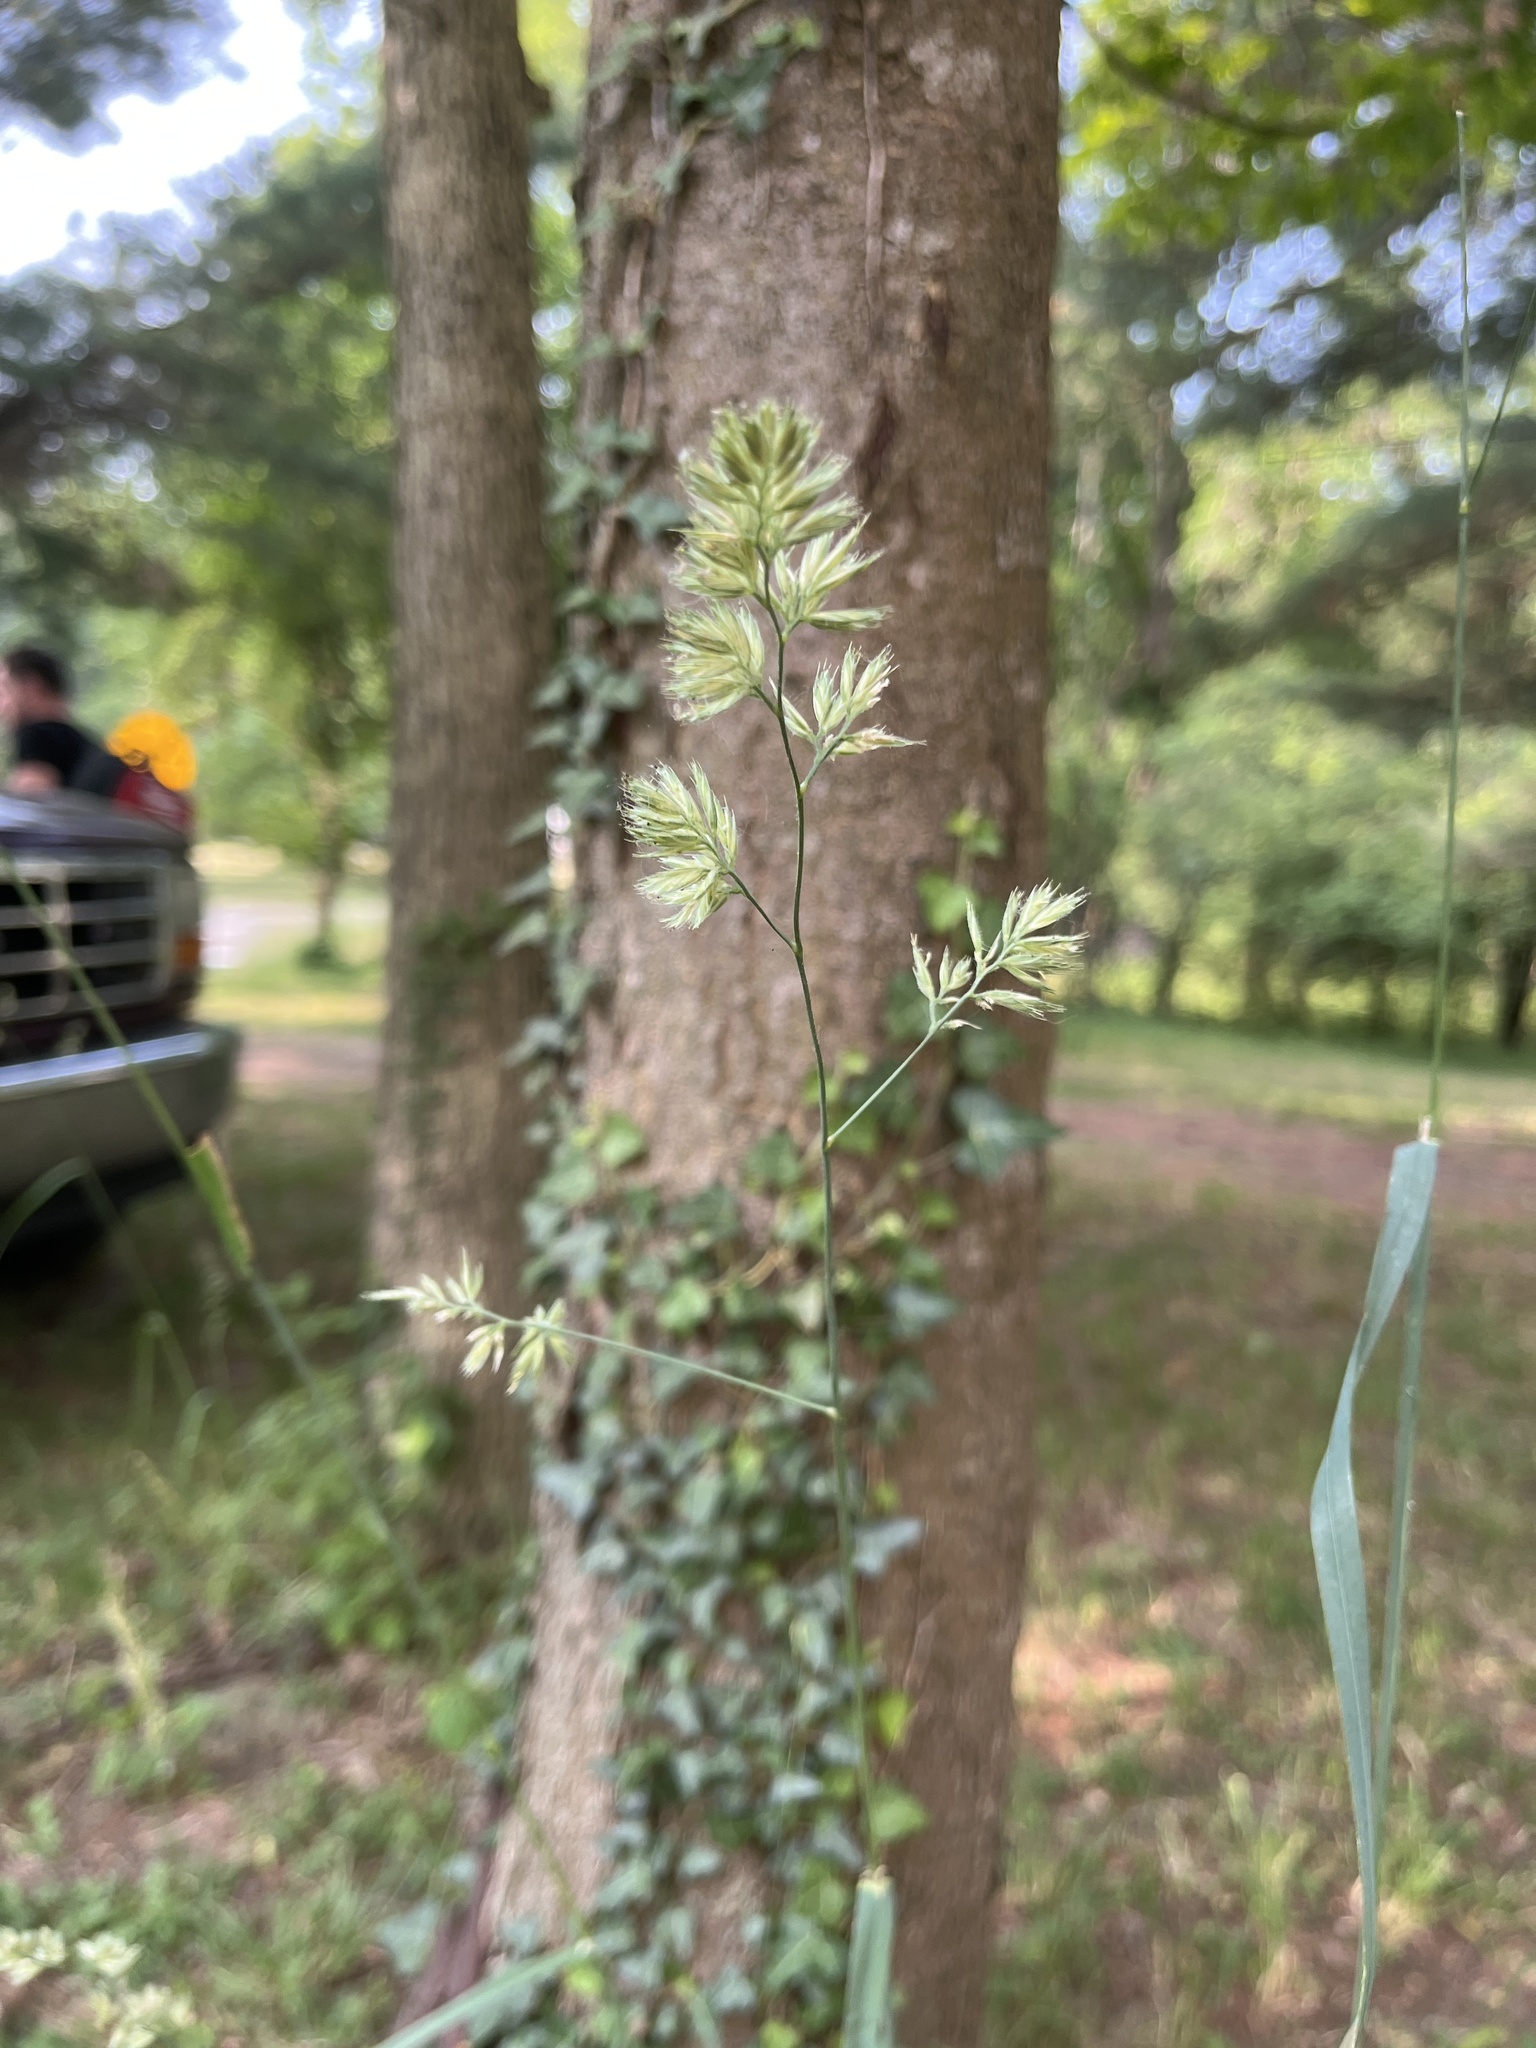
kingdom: Plantae
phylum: Tracheophyta
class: Liliopsida
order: Poales
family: Poaceae
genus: Dactylis
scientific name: Dactylis glomerata
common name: Orchardgrass
